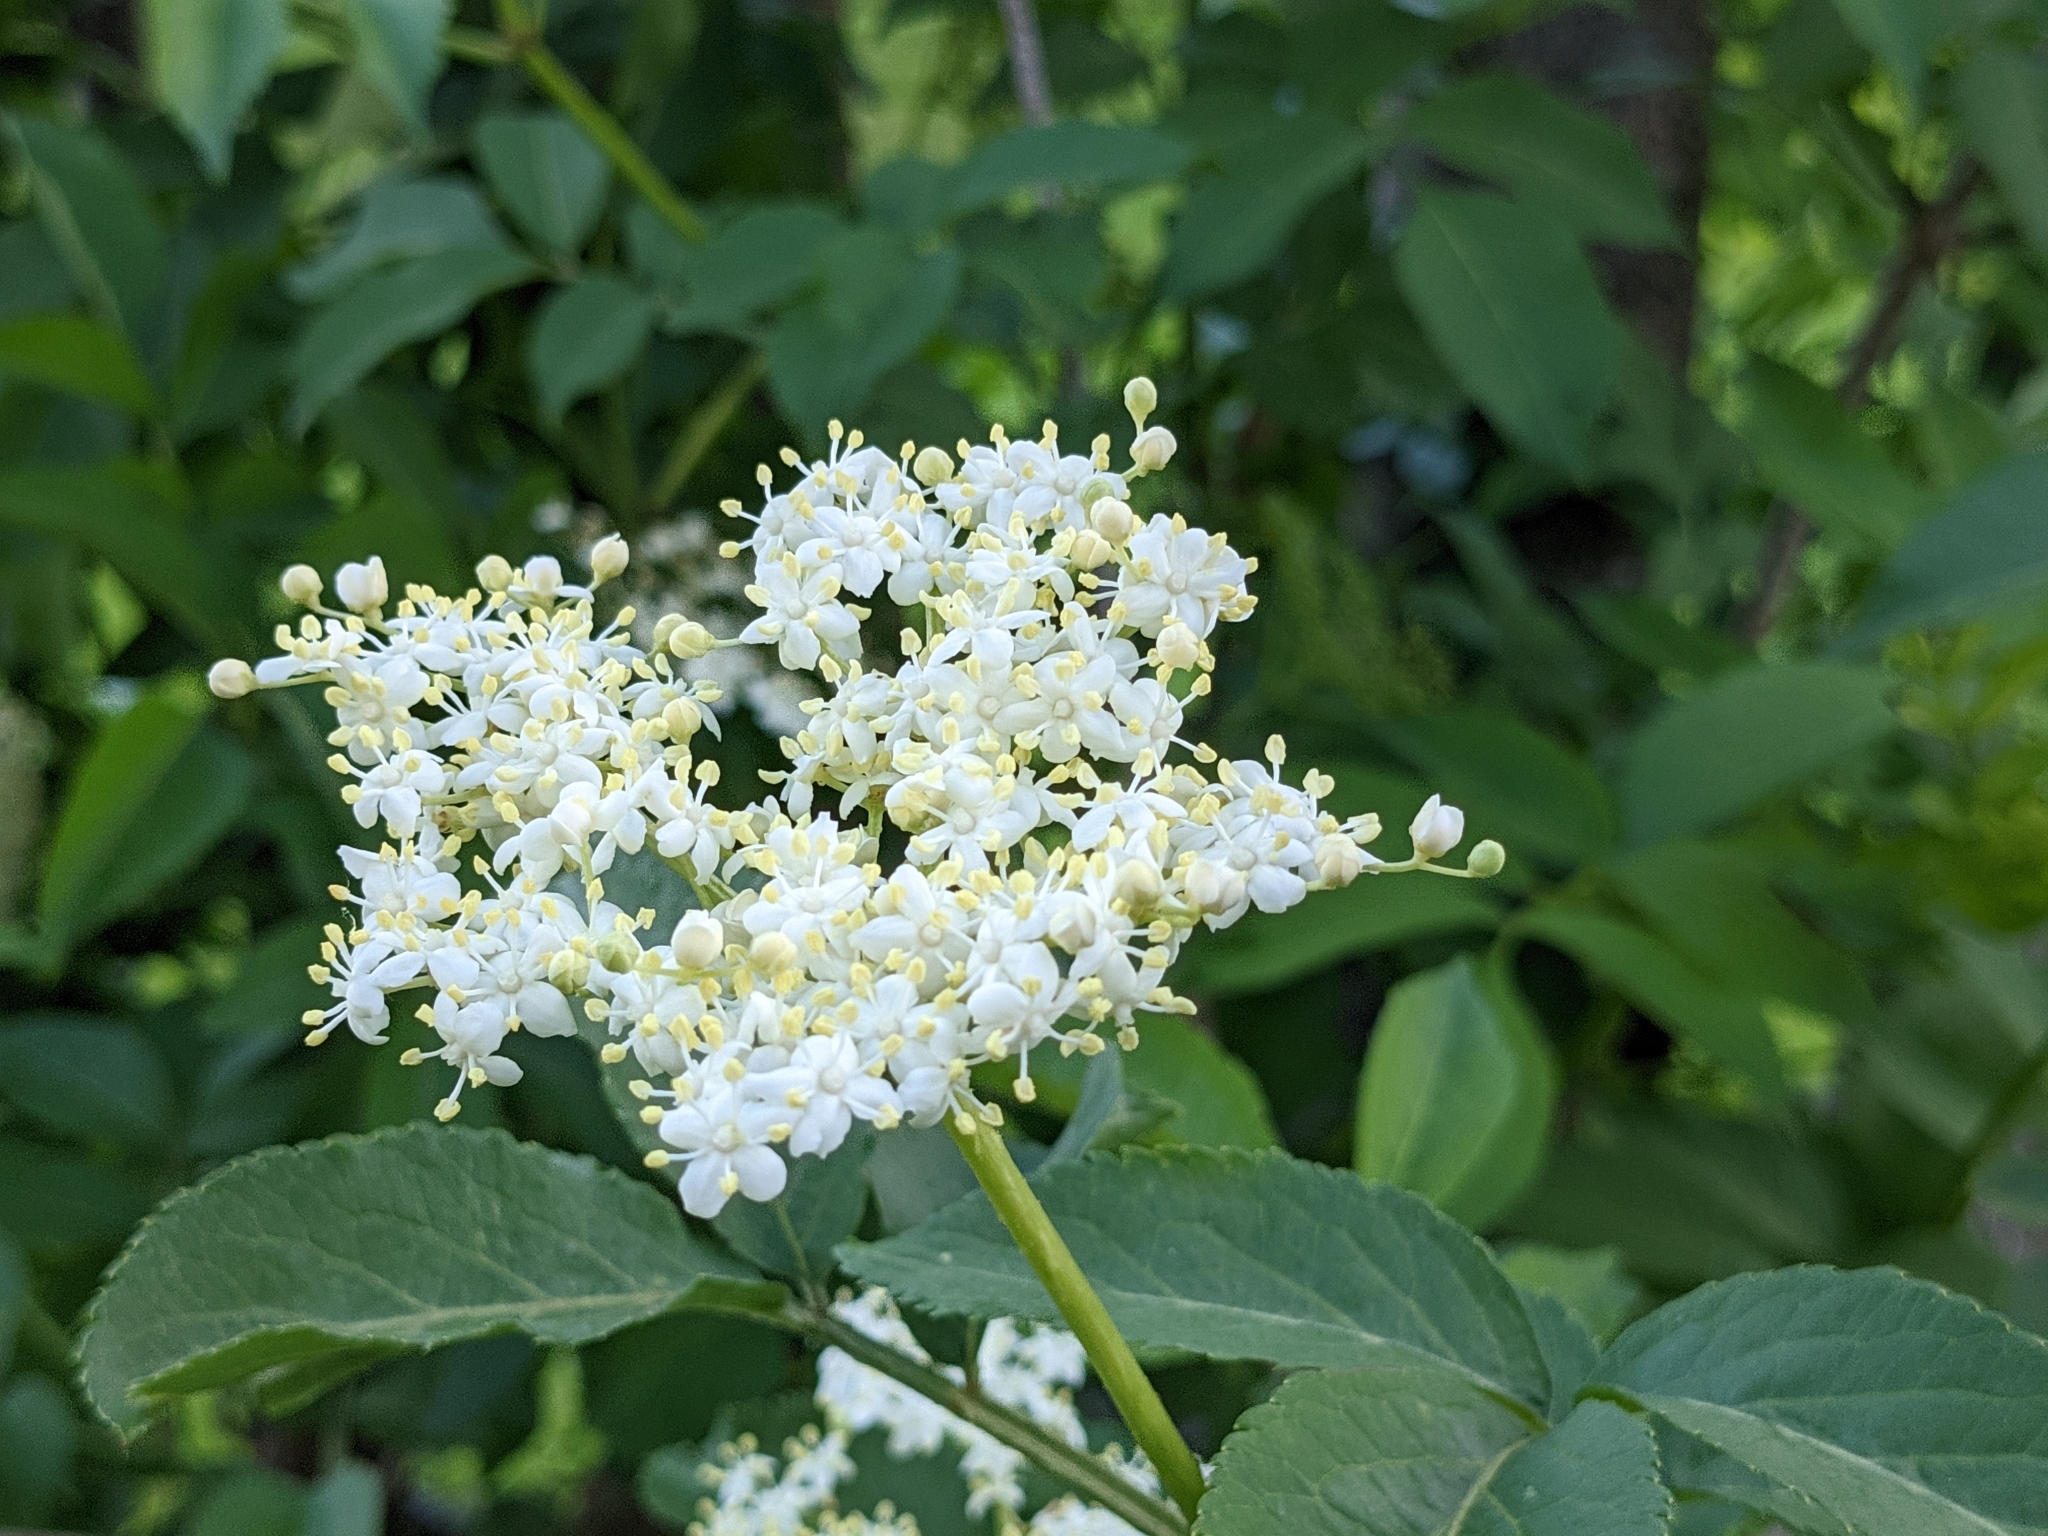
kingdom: Plantae
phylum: Tracheophyta
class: Magnoliopsida
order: Dipsacales
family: Viburnaceae
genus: Sambucus
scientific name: Sambucus nigra
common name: Elder
